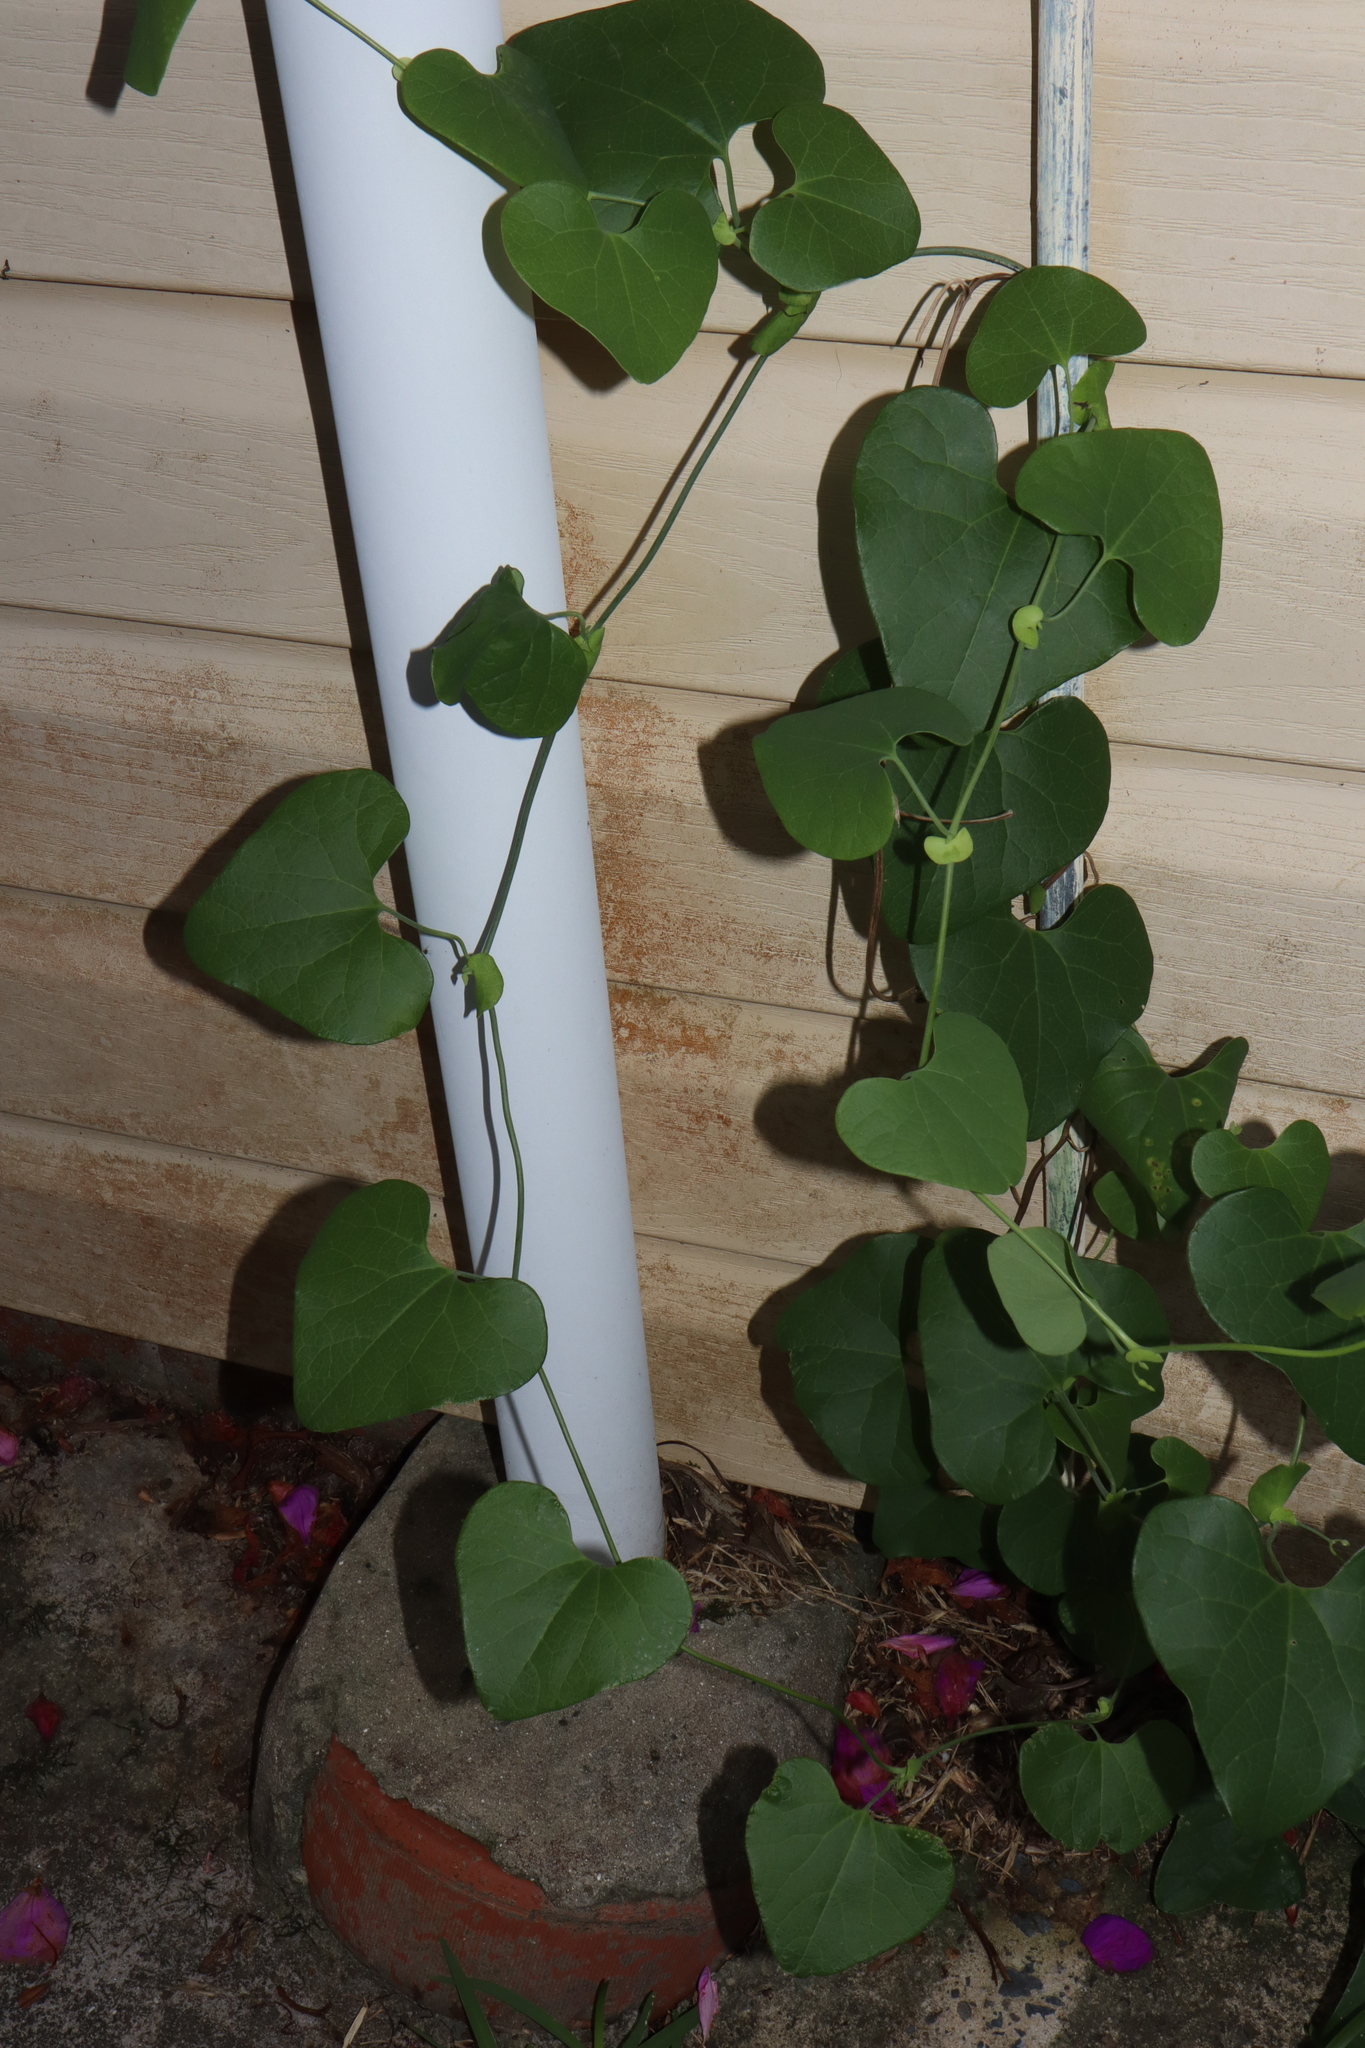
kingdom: Plantae
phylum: Tracheophyta
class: Magnoliopsida
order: Piperales
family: Aristolochiaceae
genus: Aristolochia
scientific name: Aristolochia littoralis
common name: Duck
